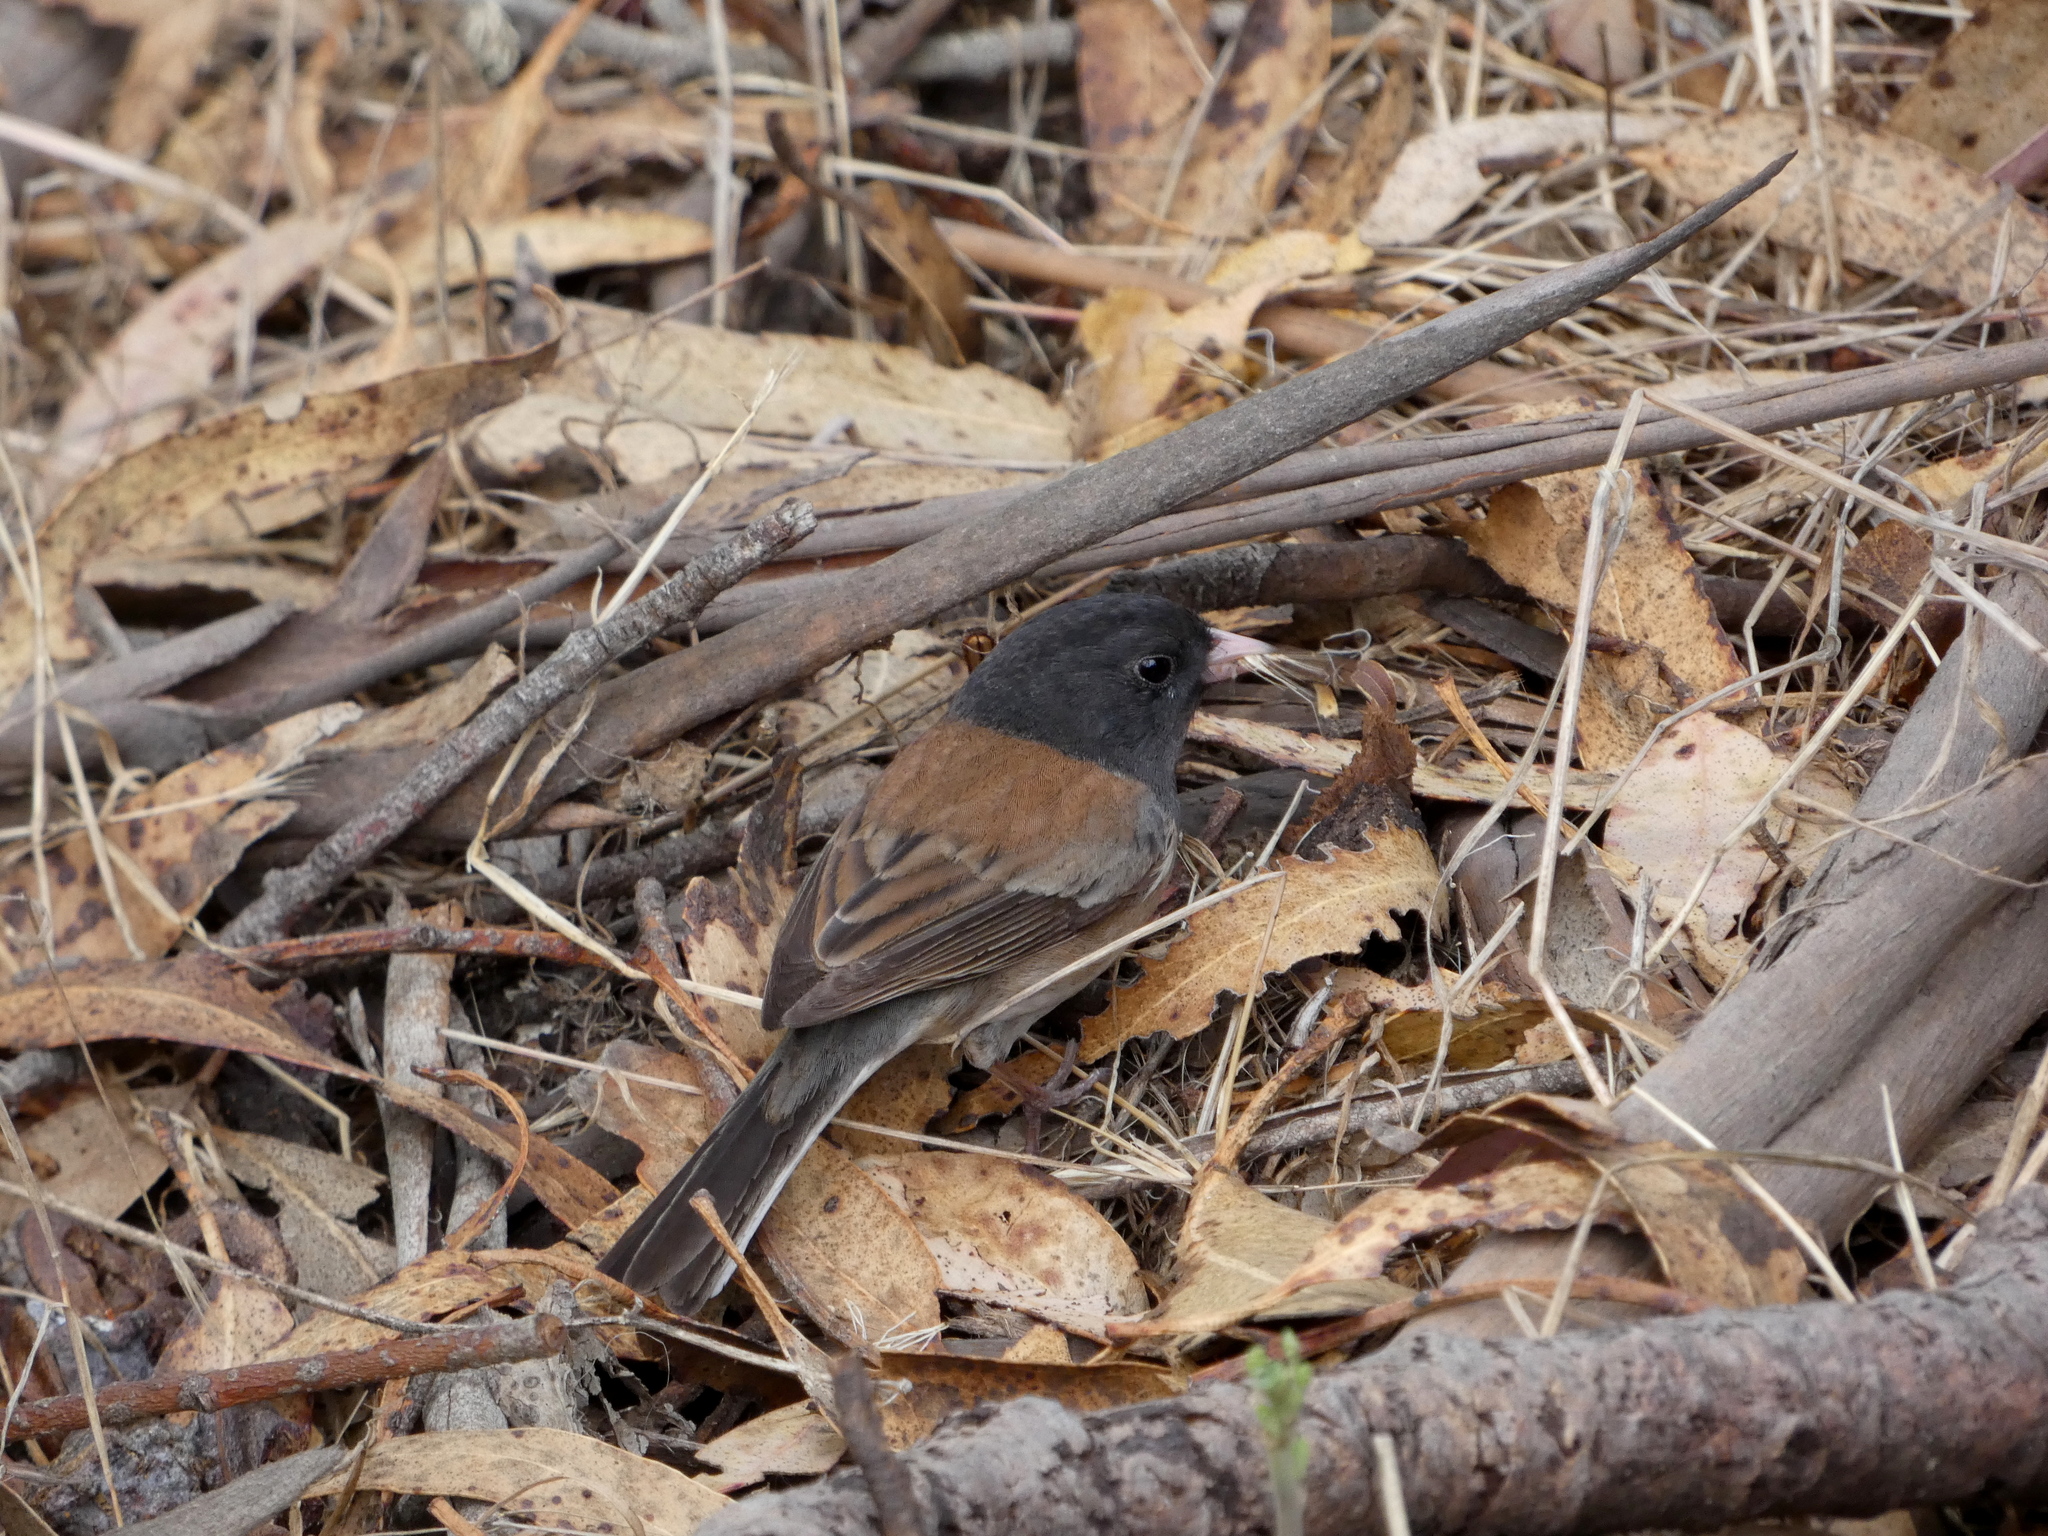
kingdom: Animalia
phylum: Chordata
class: Aves
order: Passeriformes
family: Passerellidae
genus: Junco
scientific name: Junco hyemalis
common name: Dark-eyed junco
